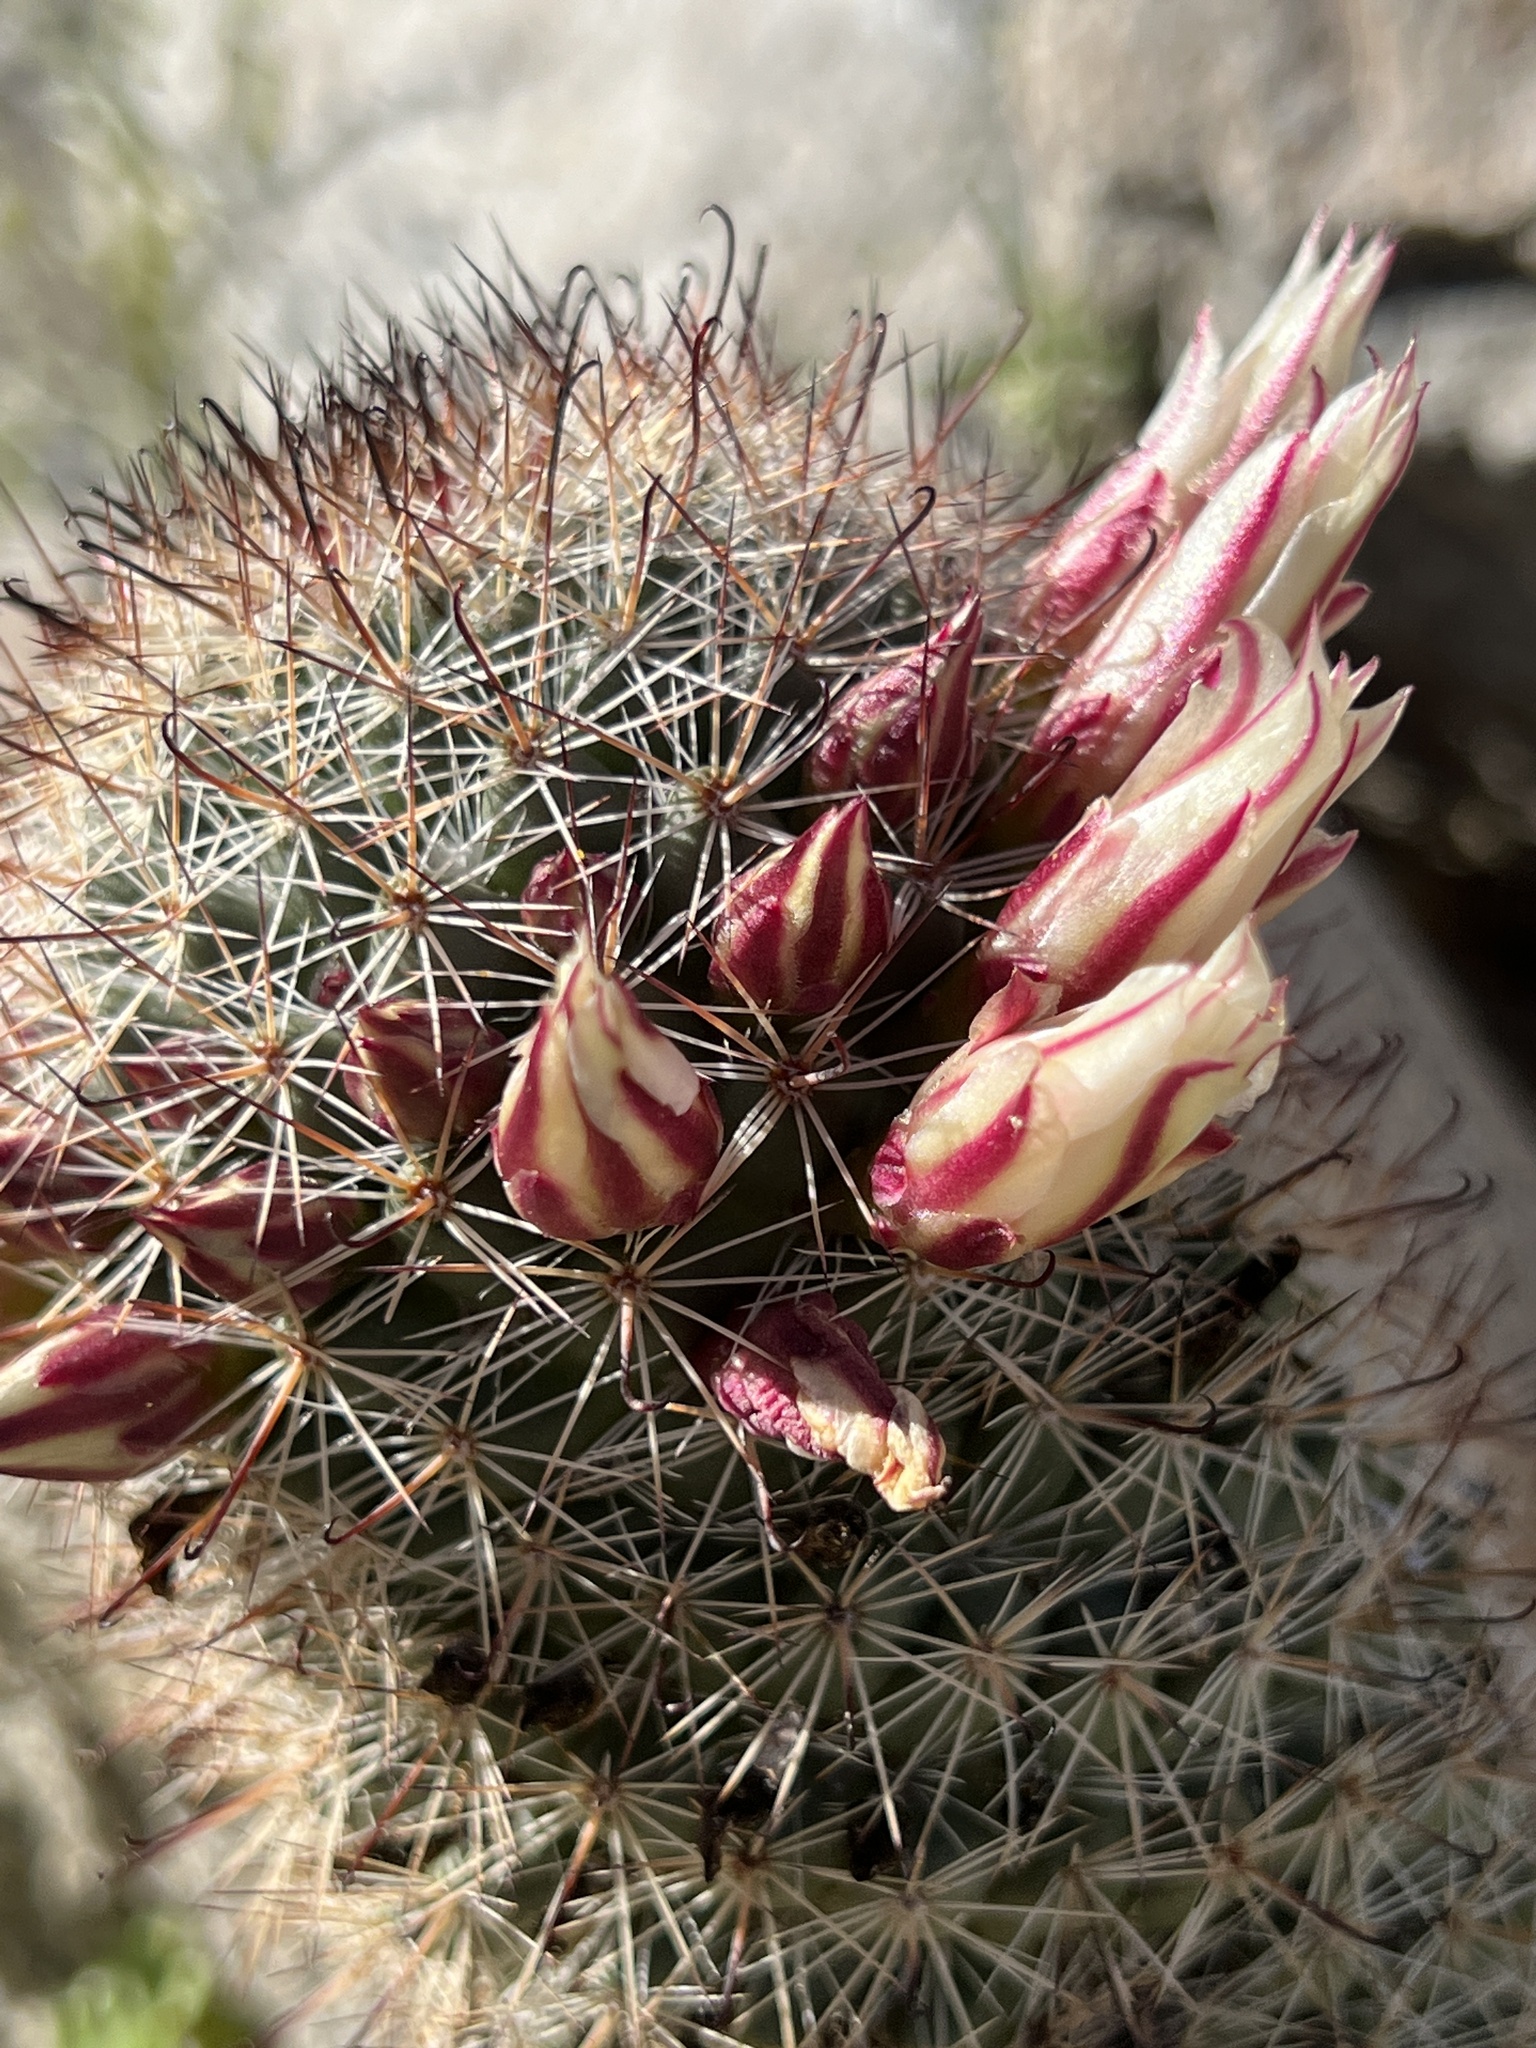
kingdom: Plantae
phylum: Tracheophyta
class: Magnoliopsida
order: Caryophyllales
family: Cactaceae
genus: Cochemiea
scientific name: Cochemiea dioica
